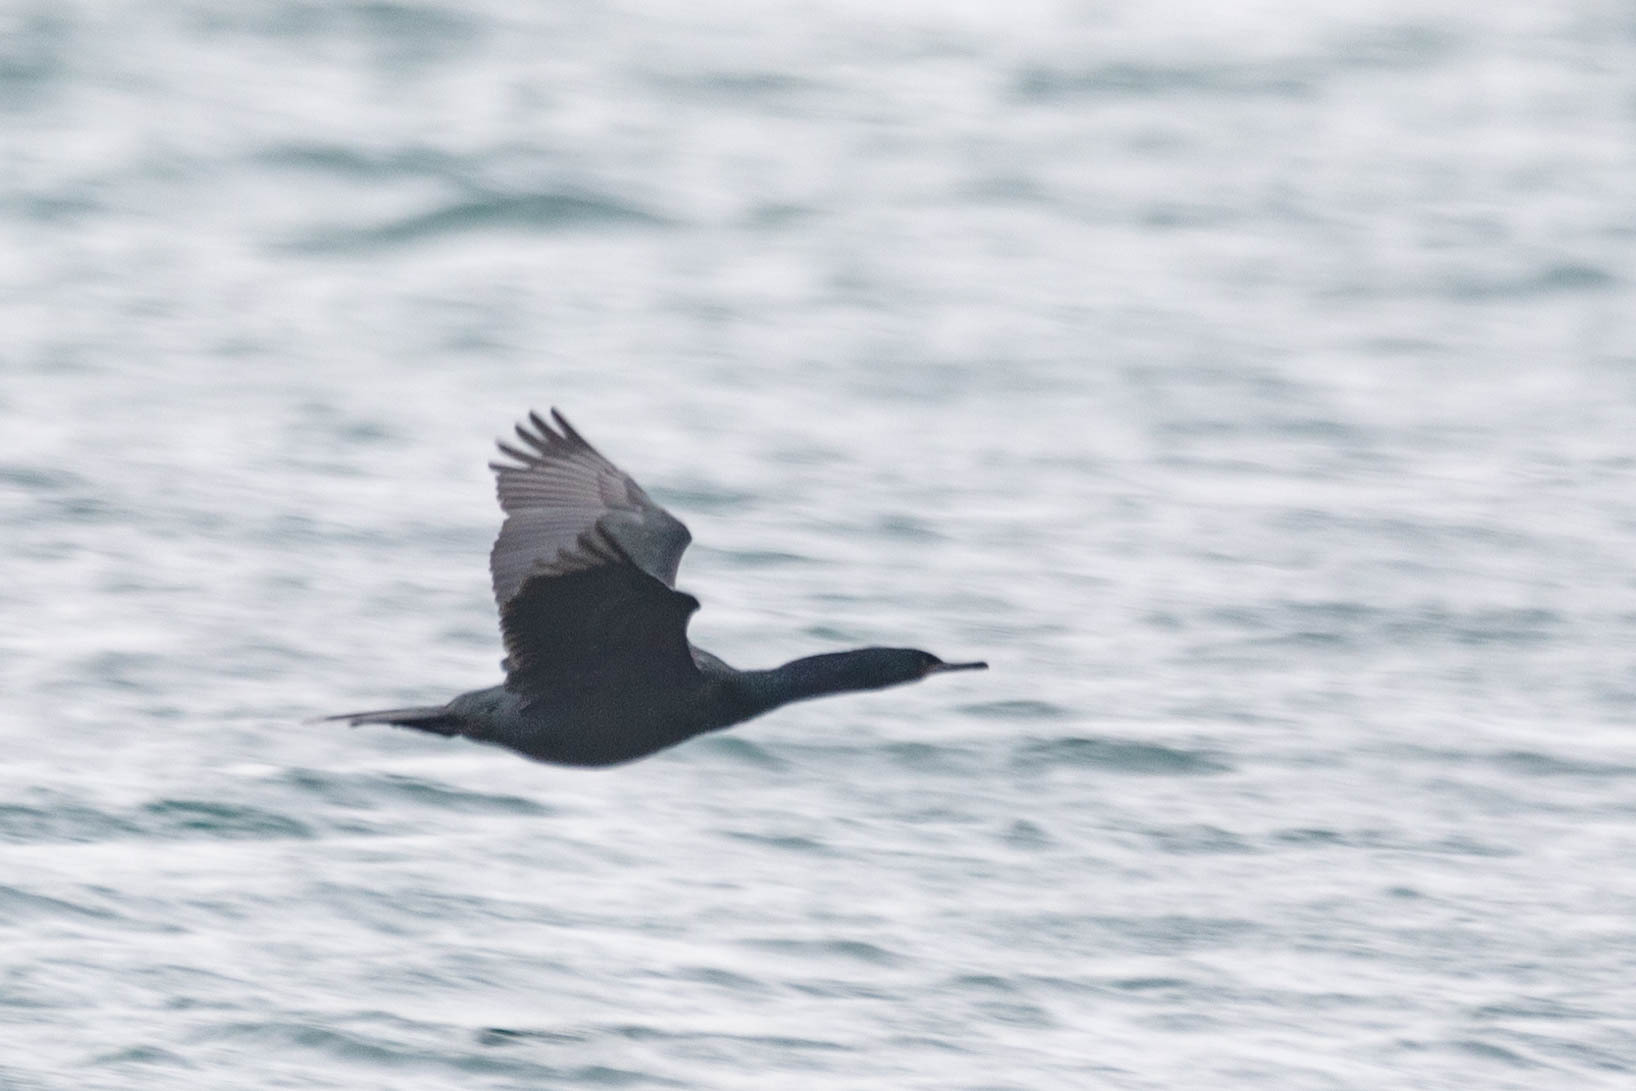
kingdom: Animalia
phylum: Chordata
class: Aves
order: Suliformes
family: Phalacrocoracidae
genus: Phalacrocorax
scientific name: Phalacrocorax pelagicus
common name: Pelagic cormorant
